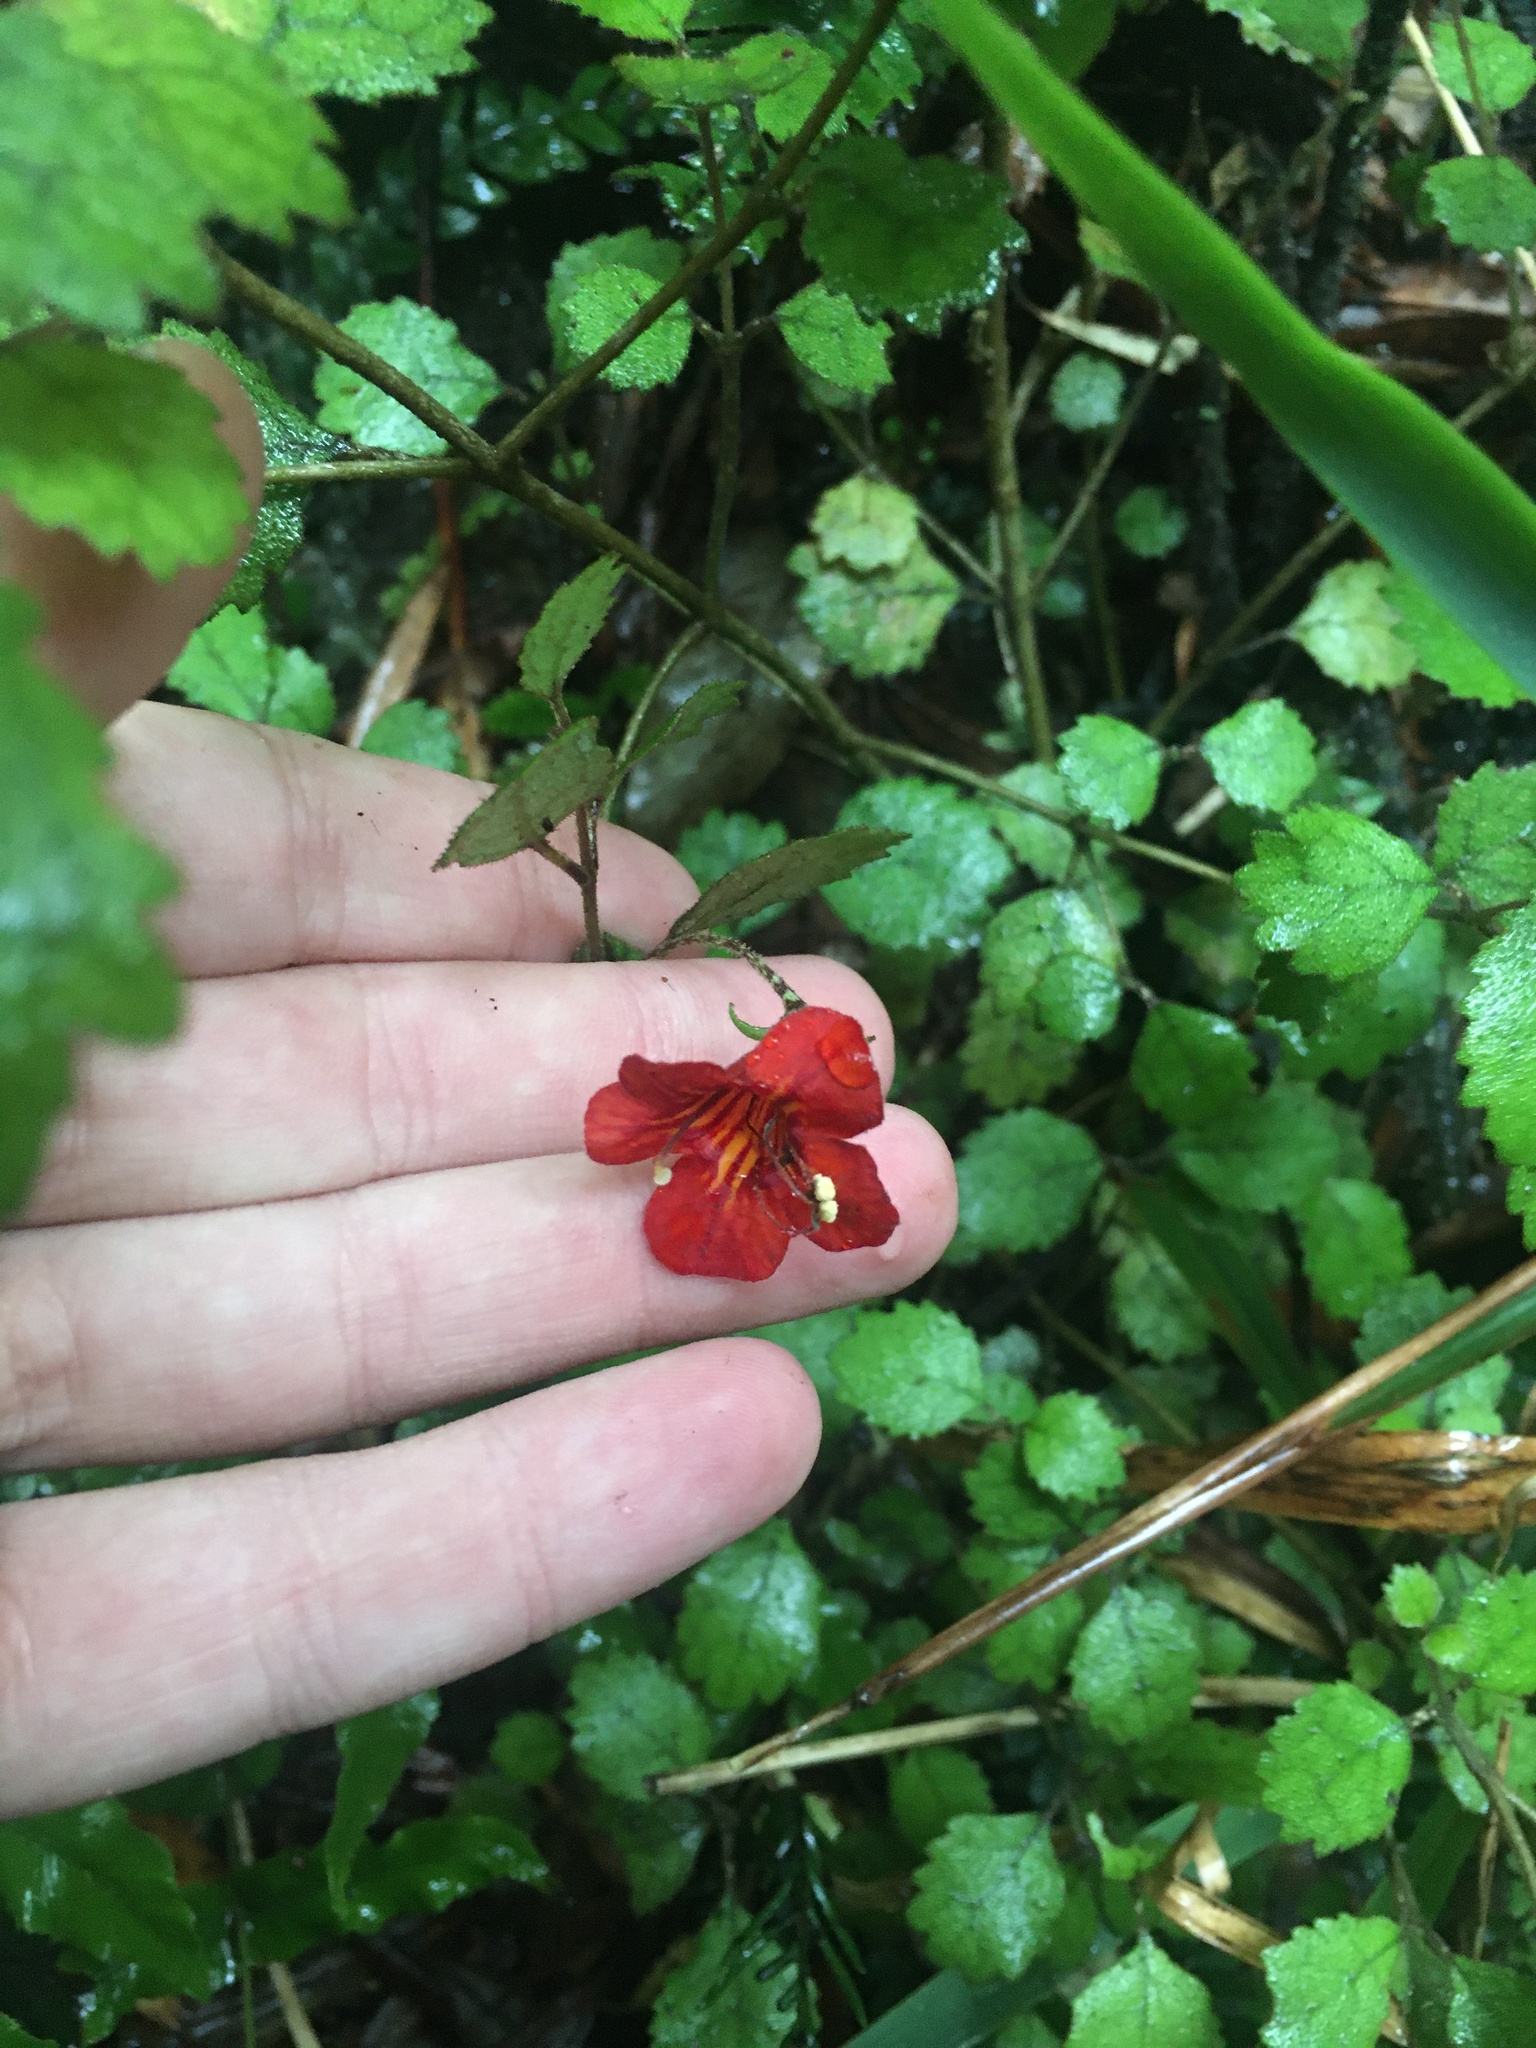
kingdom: Plantae
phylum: Tracheophyta
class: Magnoliopsida
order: Lamiales
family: Gesneriaceae
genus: Rhabdothamnus
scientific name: Rhabdothamnus solandri
